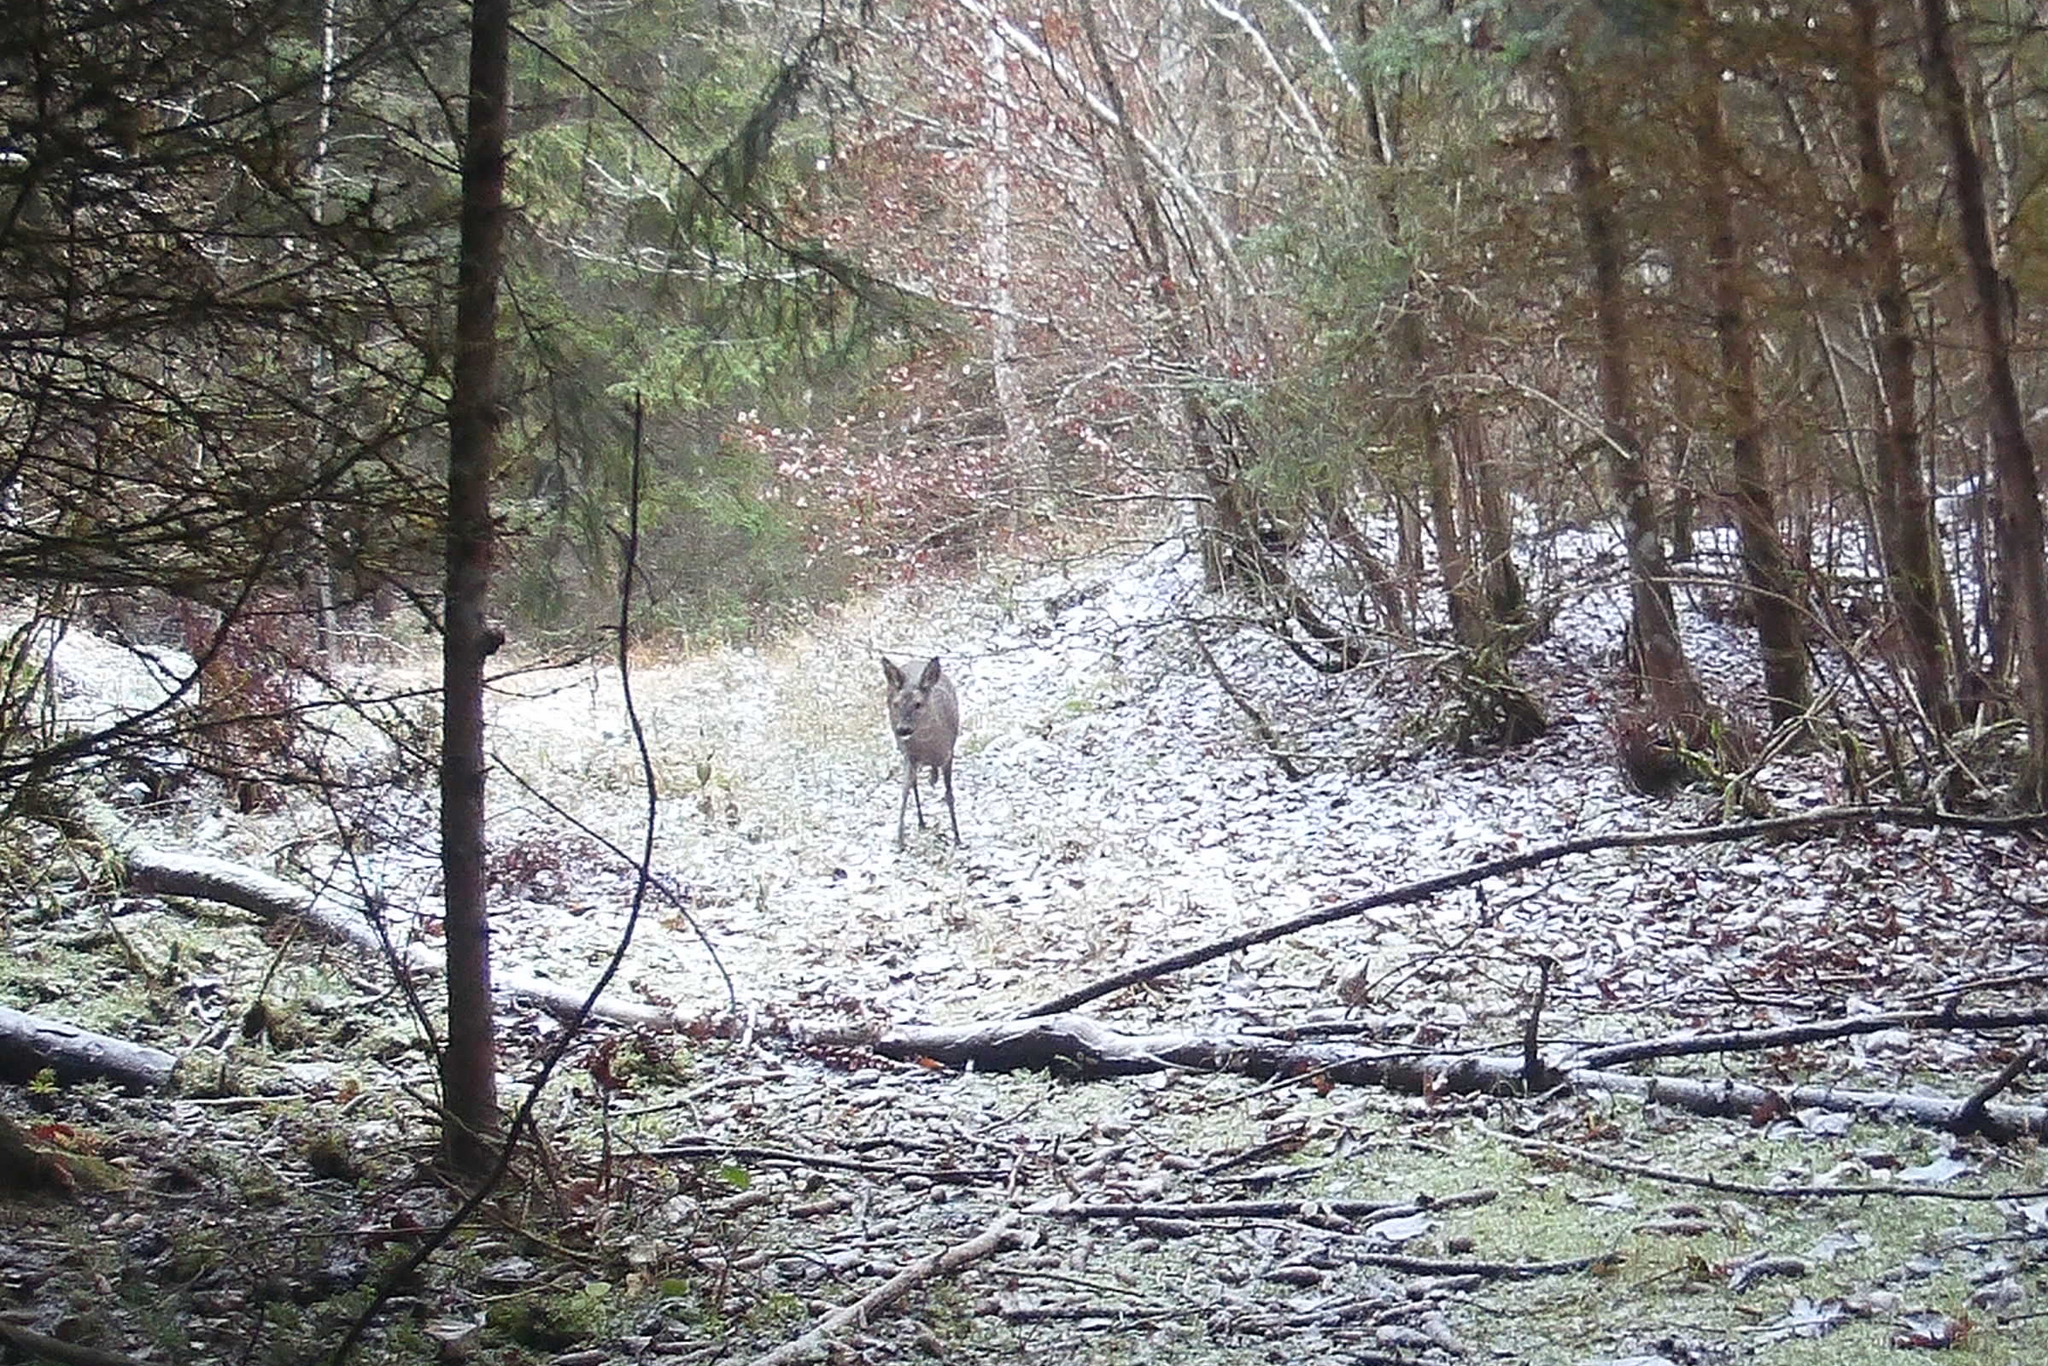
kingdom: Animalia
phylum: Chordata
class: Mammalia
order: Artiodactyla
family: Cervidae
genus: Capreolus
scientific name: Capreolus capreolus
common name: Western roe deer
